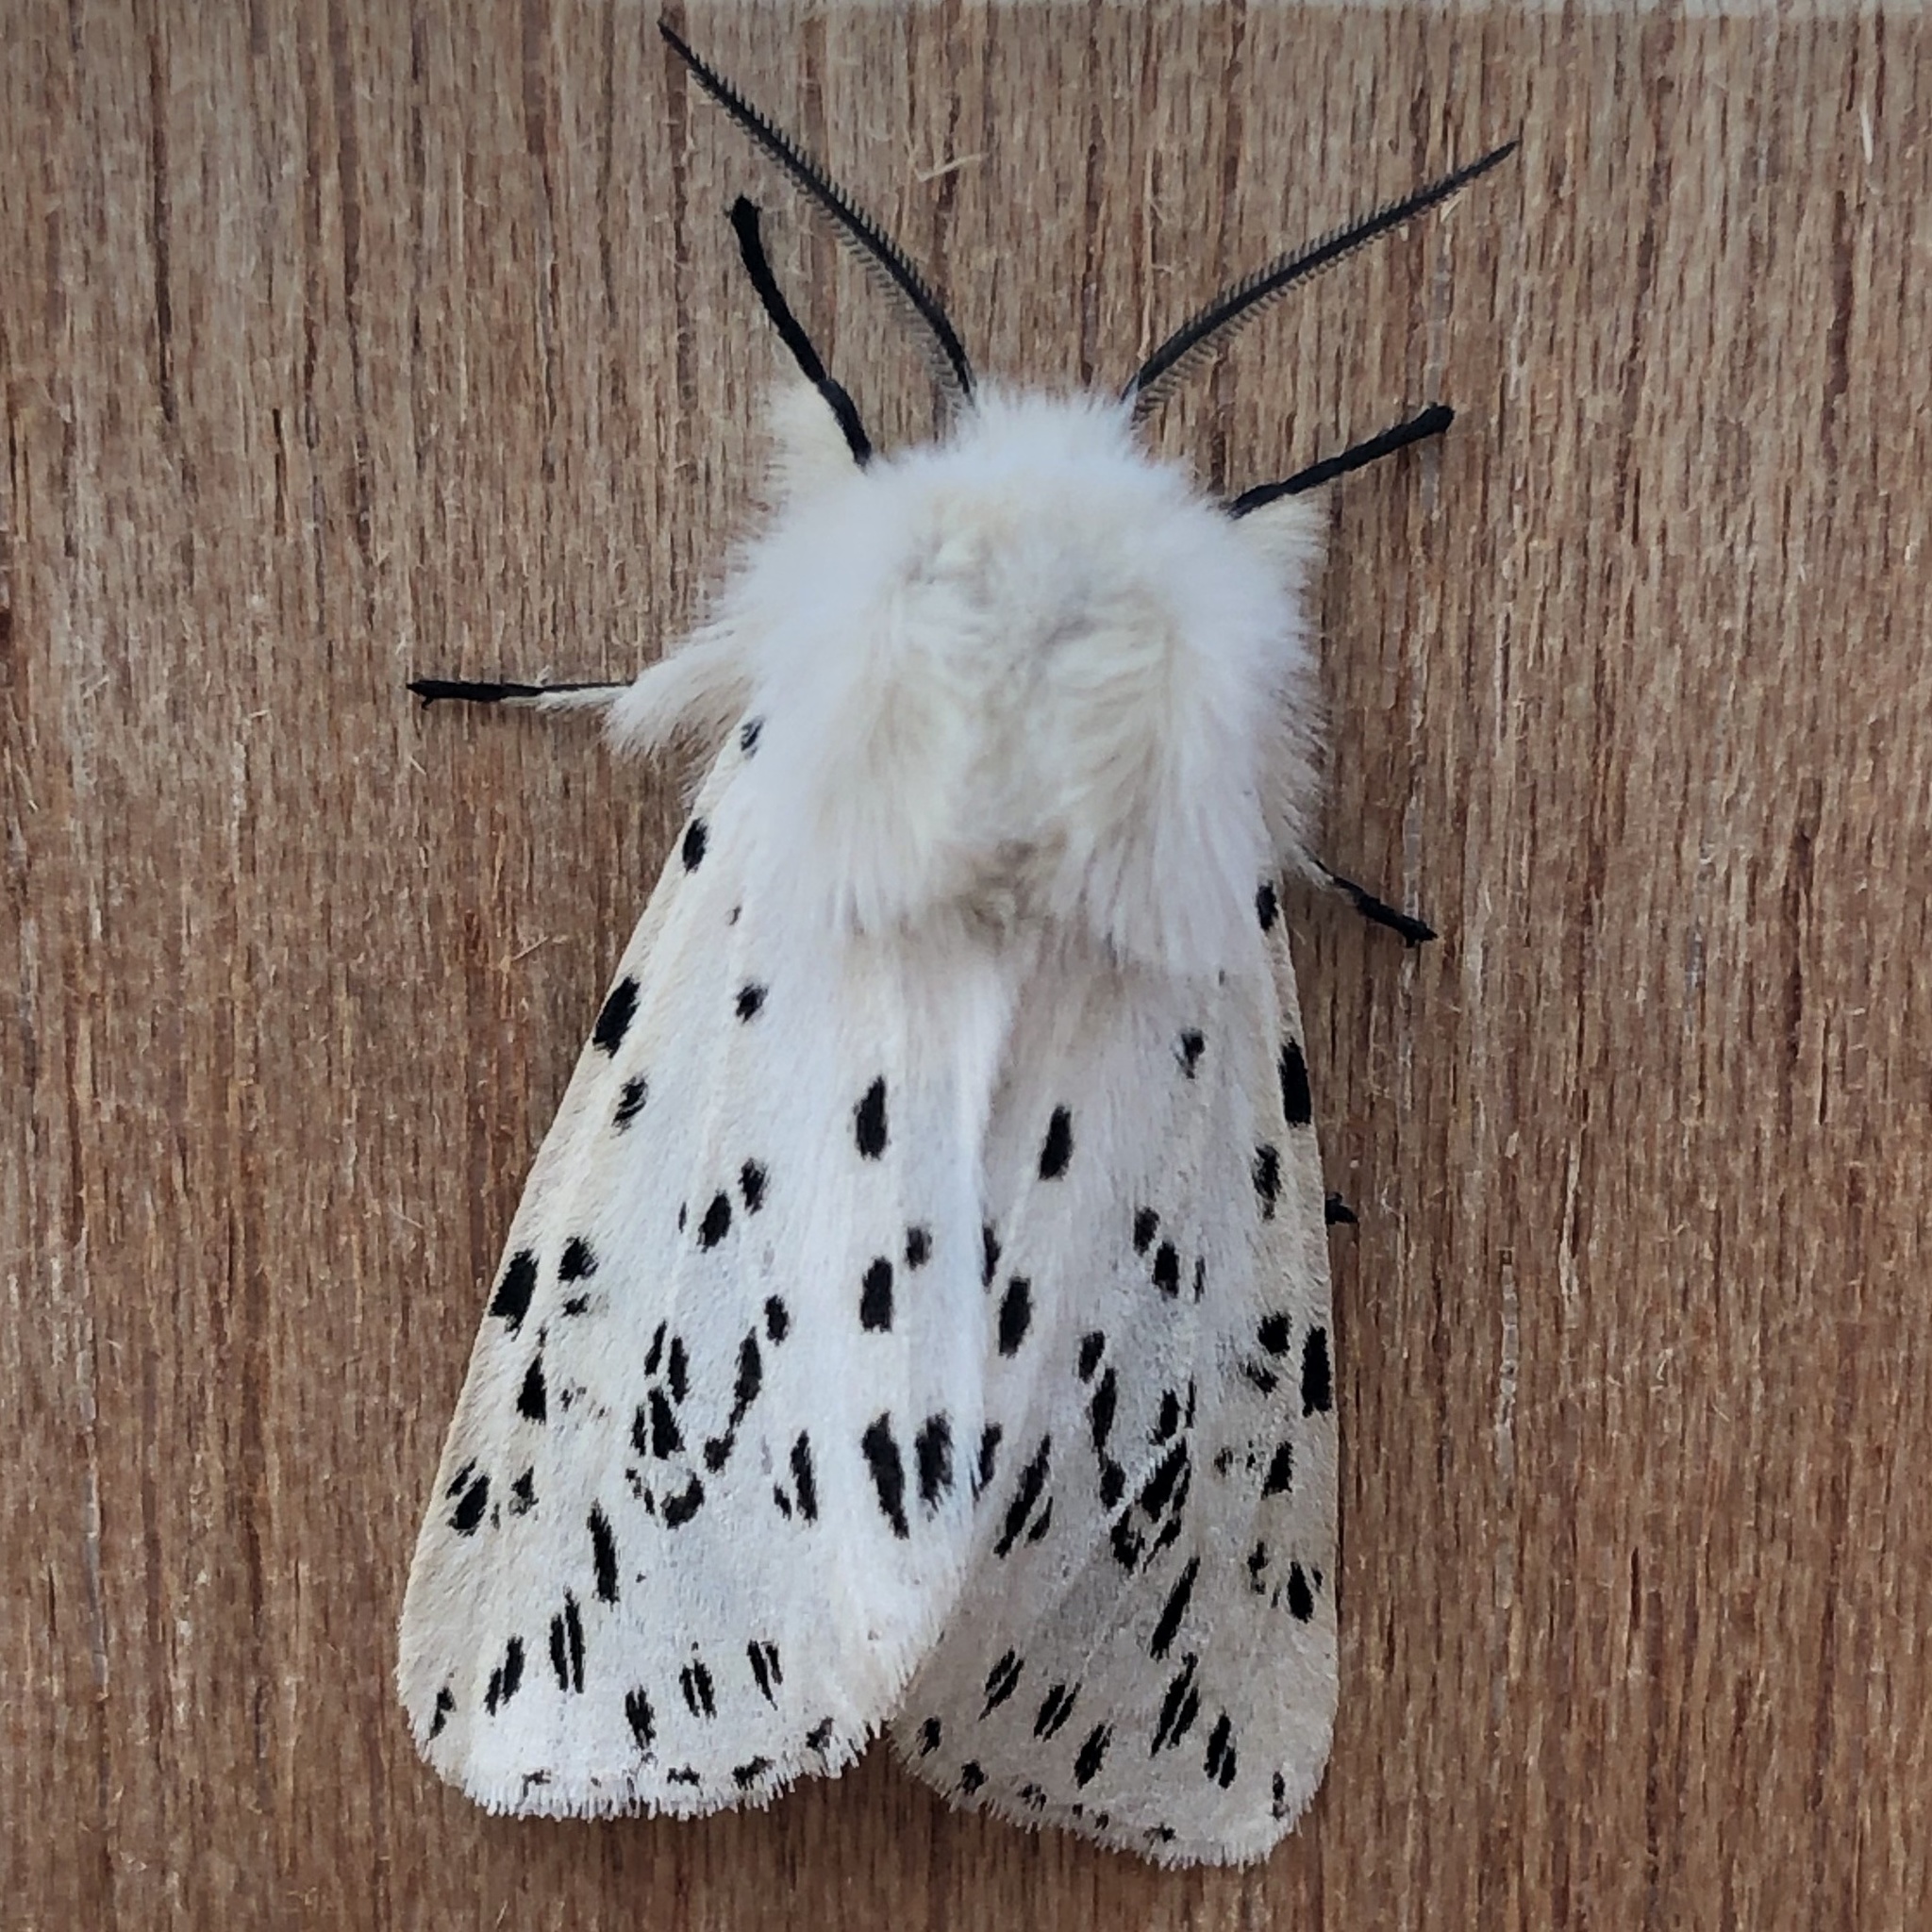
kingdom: Animalia
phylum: Arthropoda
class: Insecta
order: Lepidoptera
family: Erebidae
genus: Spilosoma
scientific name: Spilosoma lubricipeda
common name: White ermine
